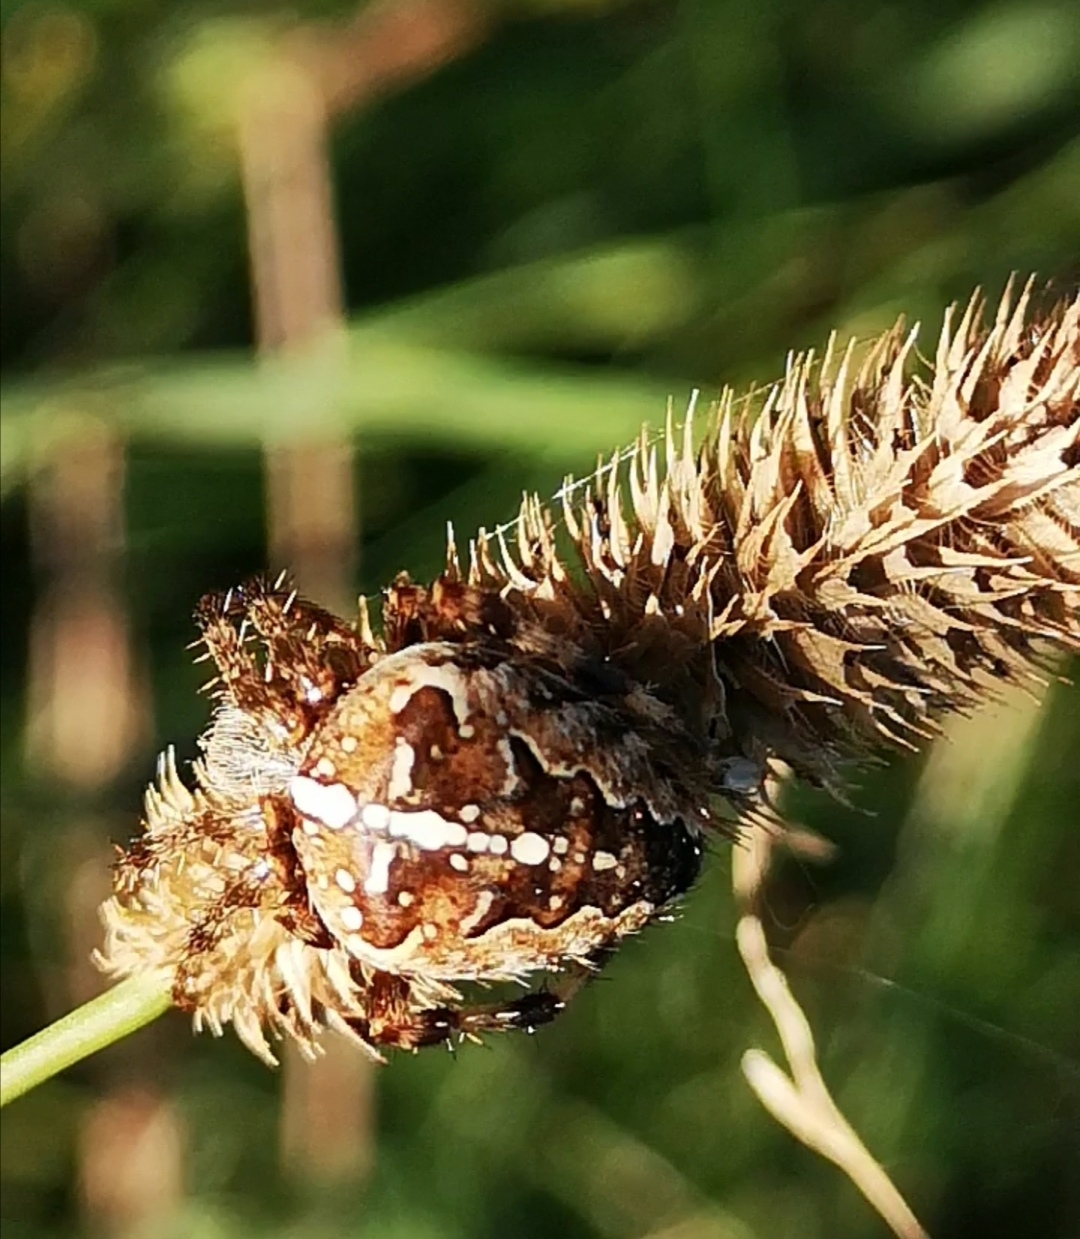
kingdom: Animalia
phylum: Arthropoda
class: Arachnida
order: Araneae
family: Araneidae
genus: Araneus
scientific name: Araneus diadematus
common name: Cross orbweaver
